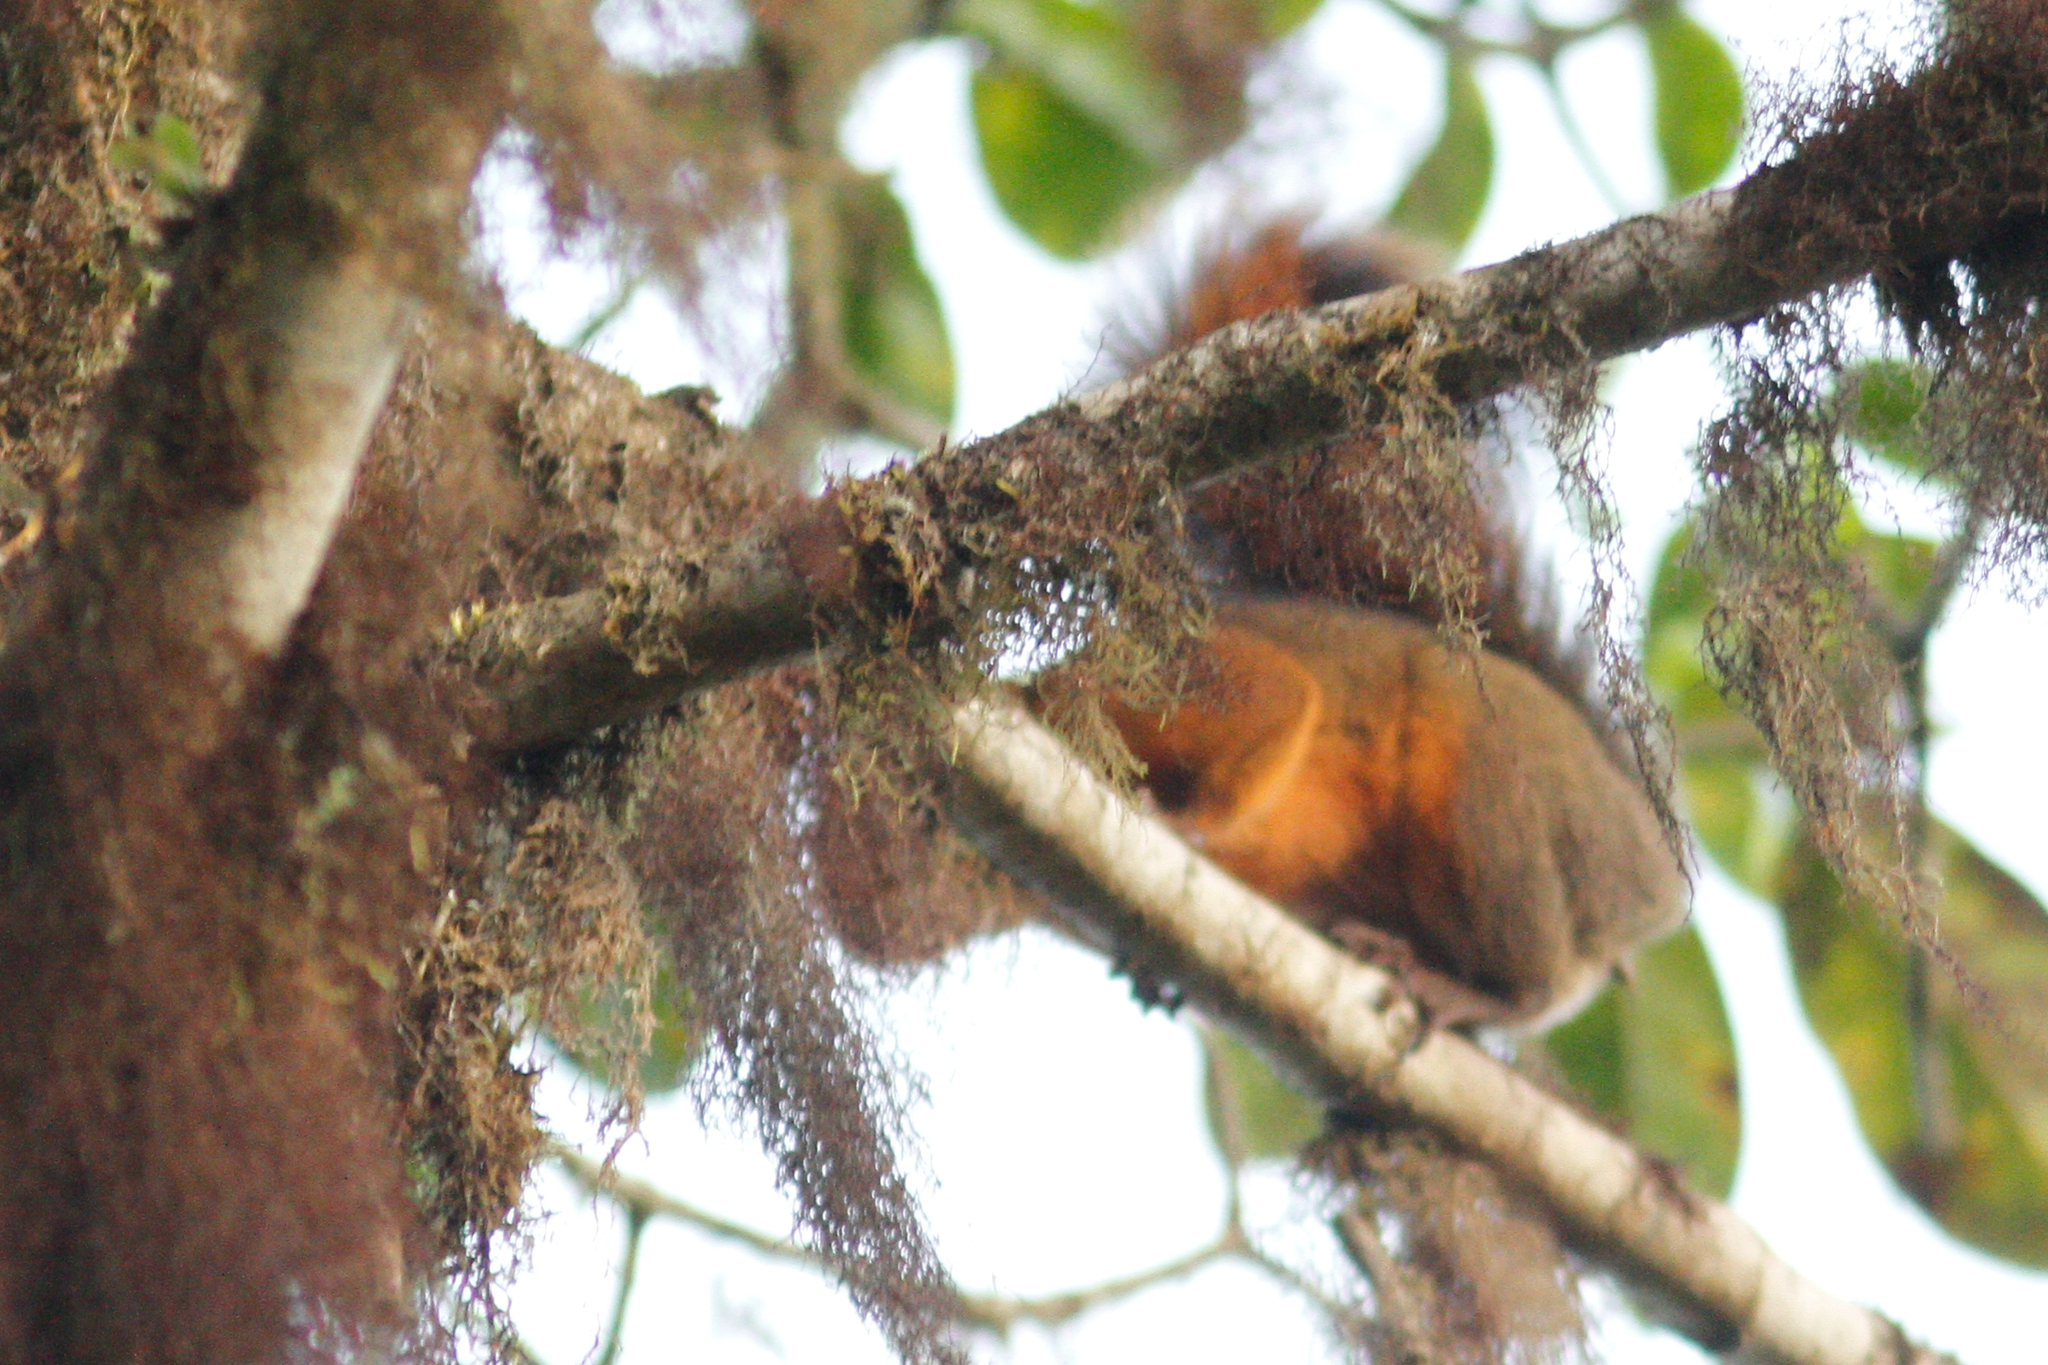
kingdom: Animalia
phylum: Chordata
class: Mammalia
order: Rodentia
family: Sciuridae
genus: Sciurus
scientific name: Sciurus granatensis
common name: Red-tailed squirrel
